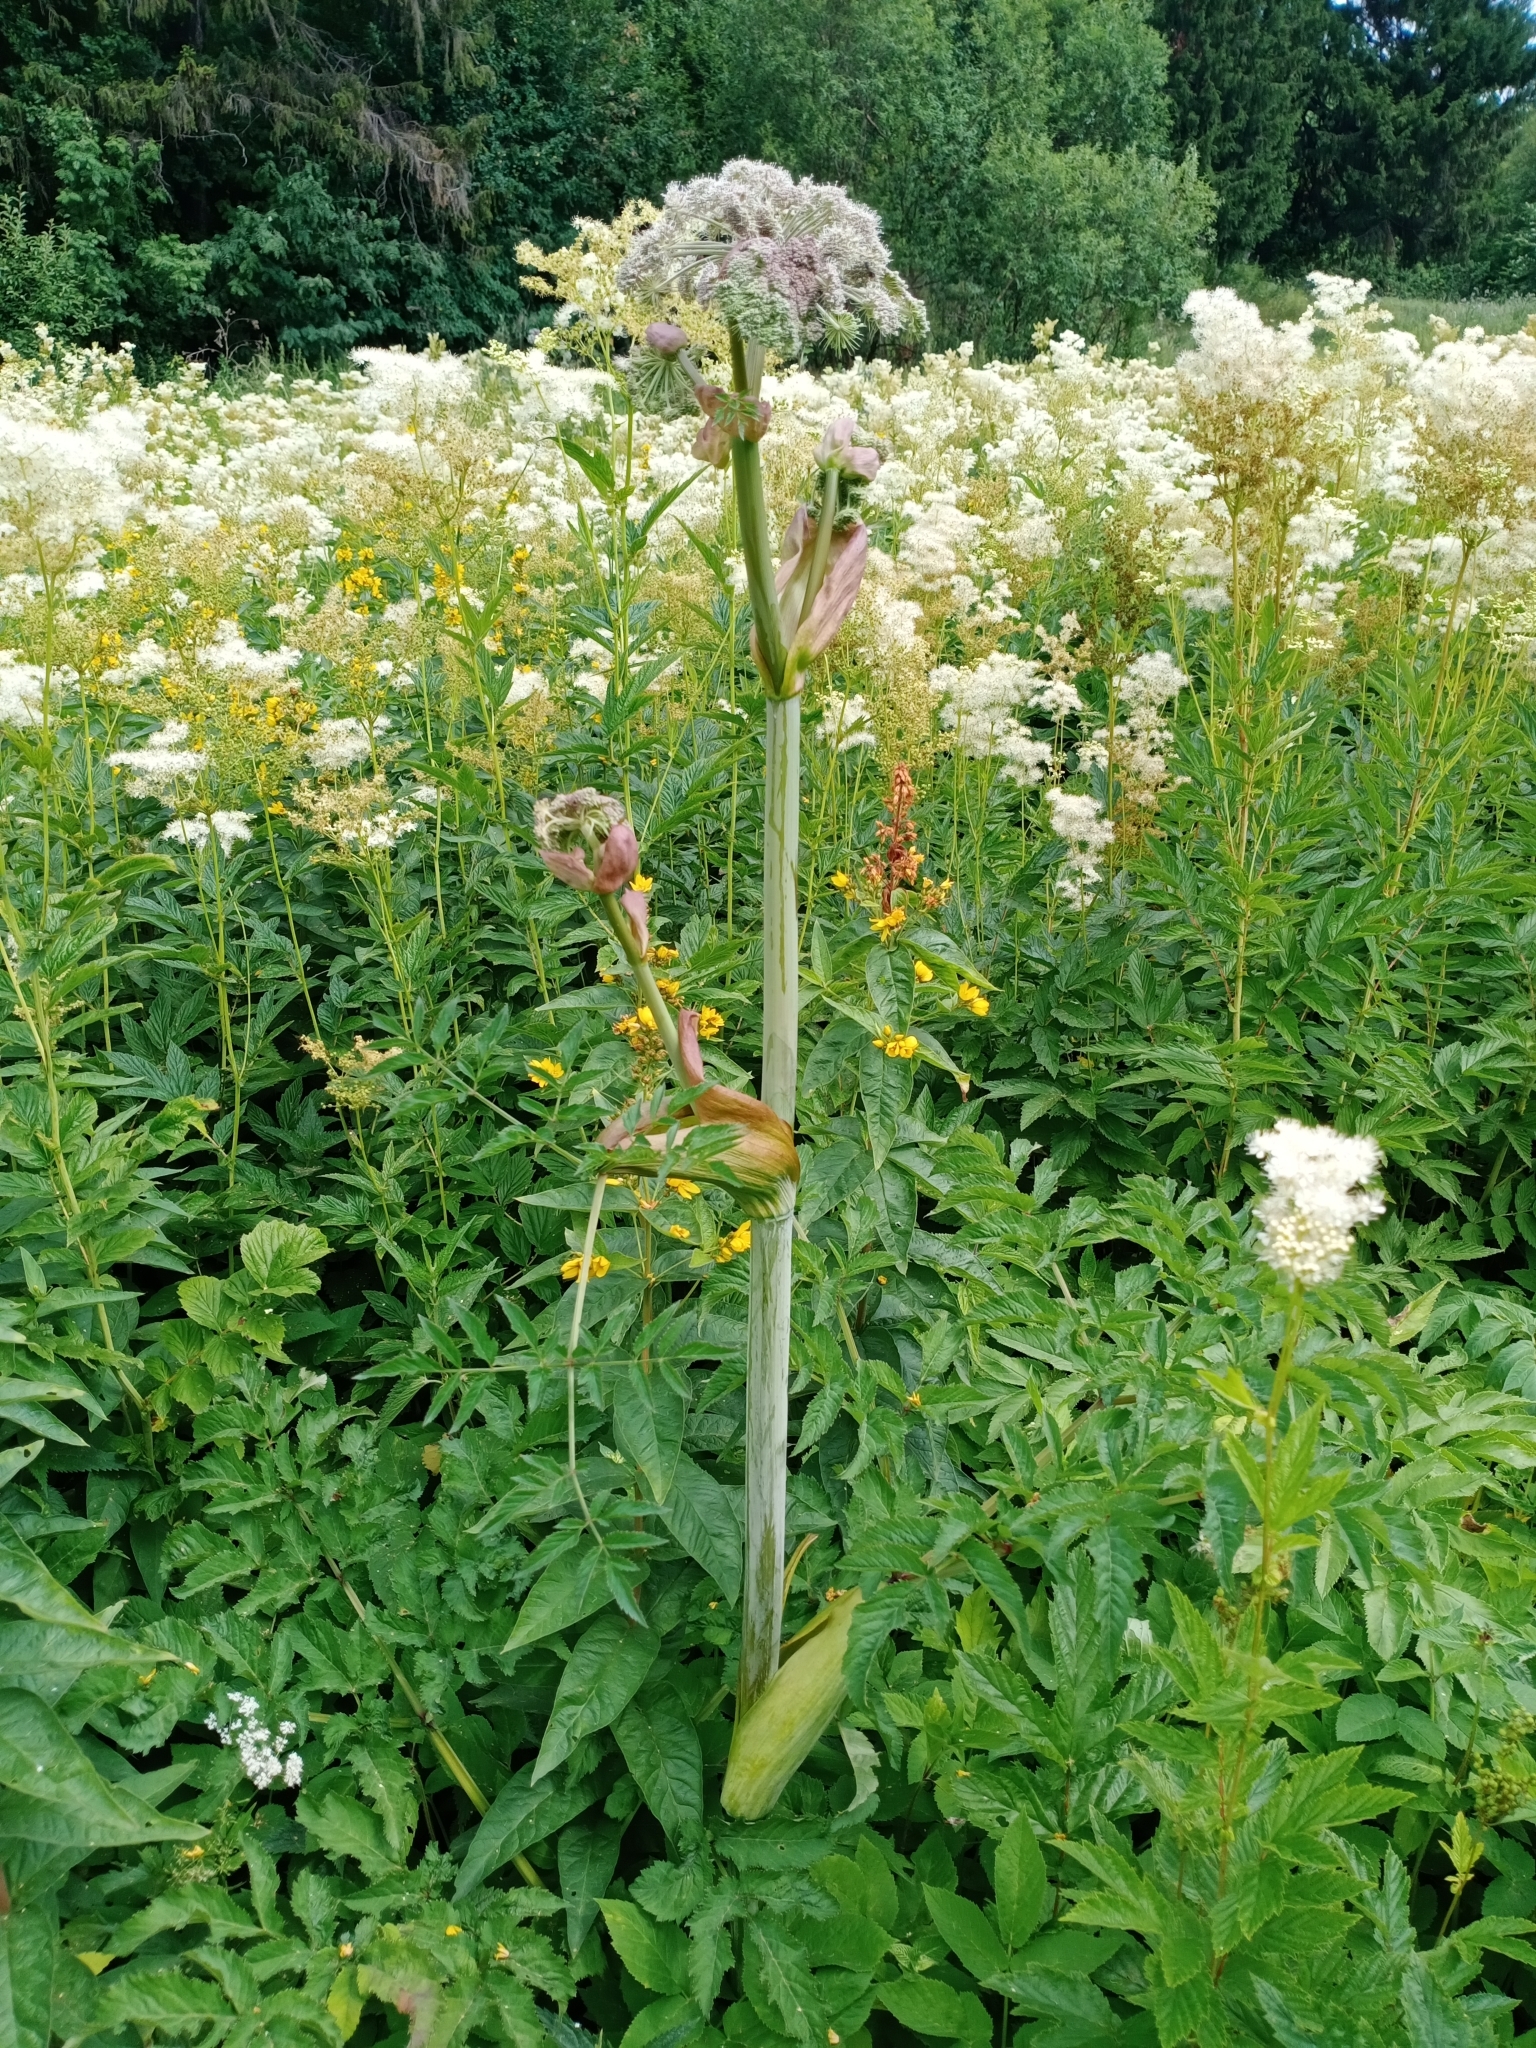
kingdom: Plantae
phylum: Tracheophyta
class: Magnoliopsida
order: Apiales
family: Apiaceae
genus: Angelica
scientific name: Angelica sylvestris
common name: Wild angelica
